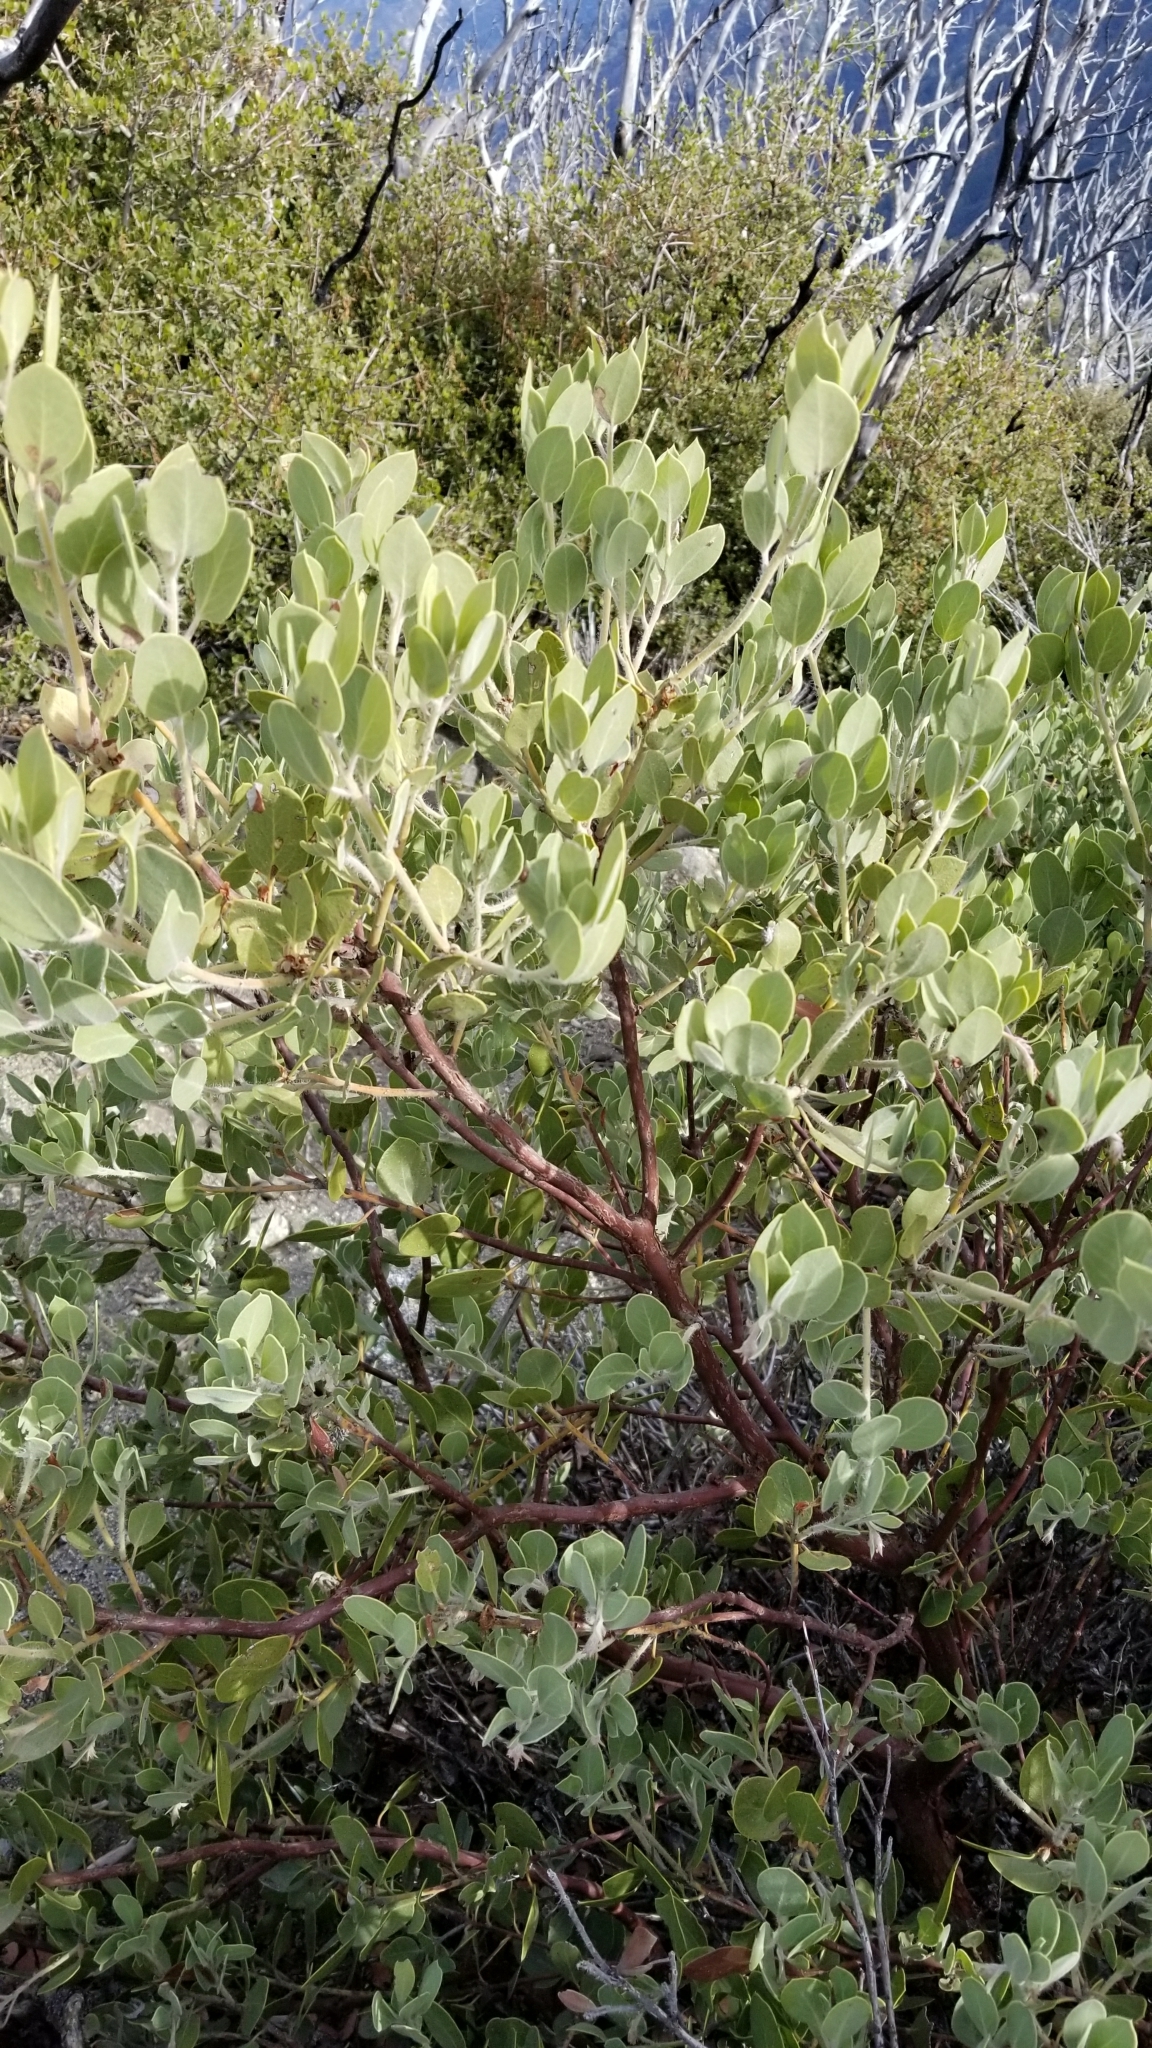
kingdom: Plantae
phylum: Tracheophyta
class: Magnoliopsida
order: Ericales
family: Ericaceae
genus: Arctostaphylos
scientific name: Arctostaphylos glandulosa
